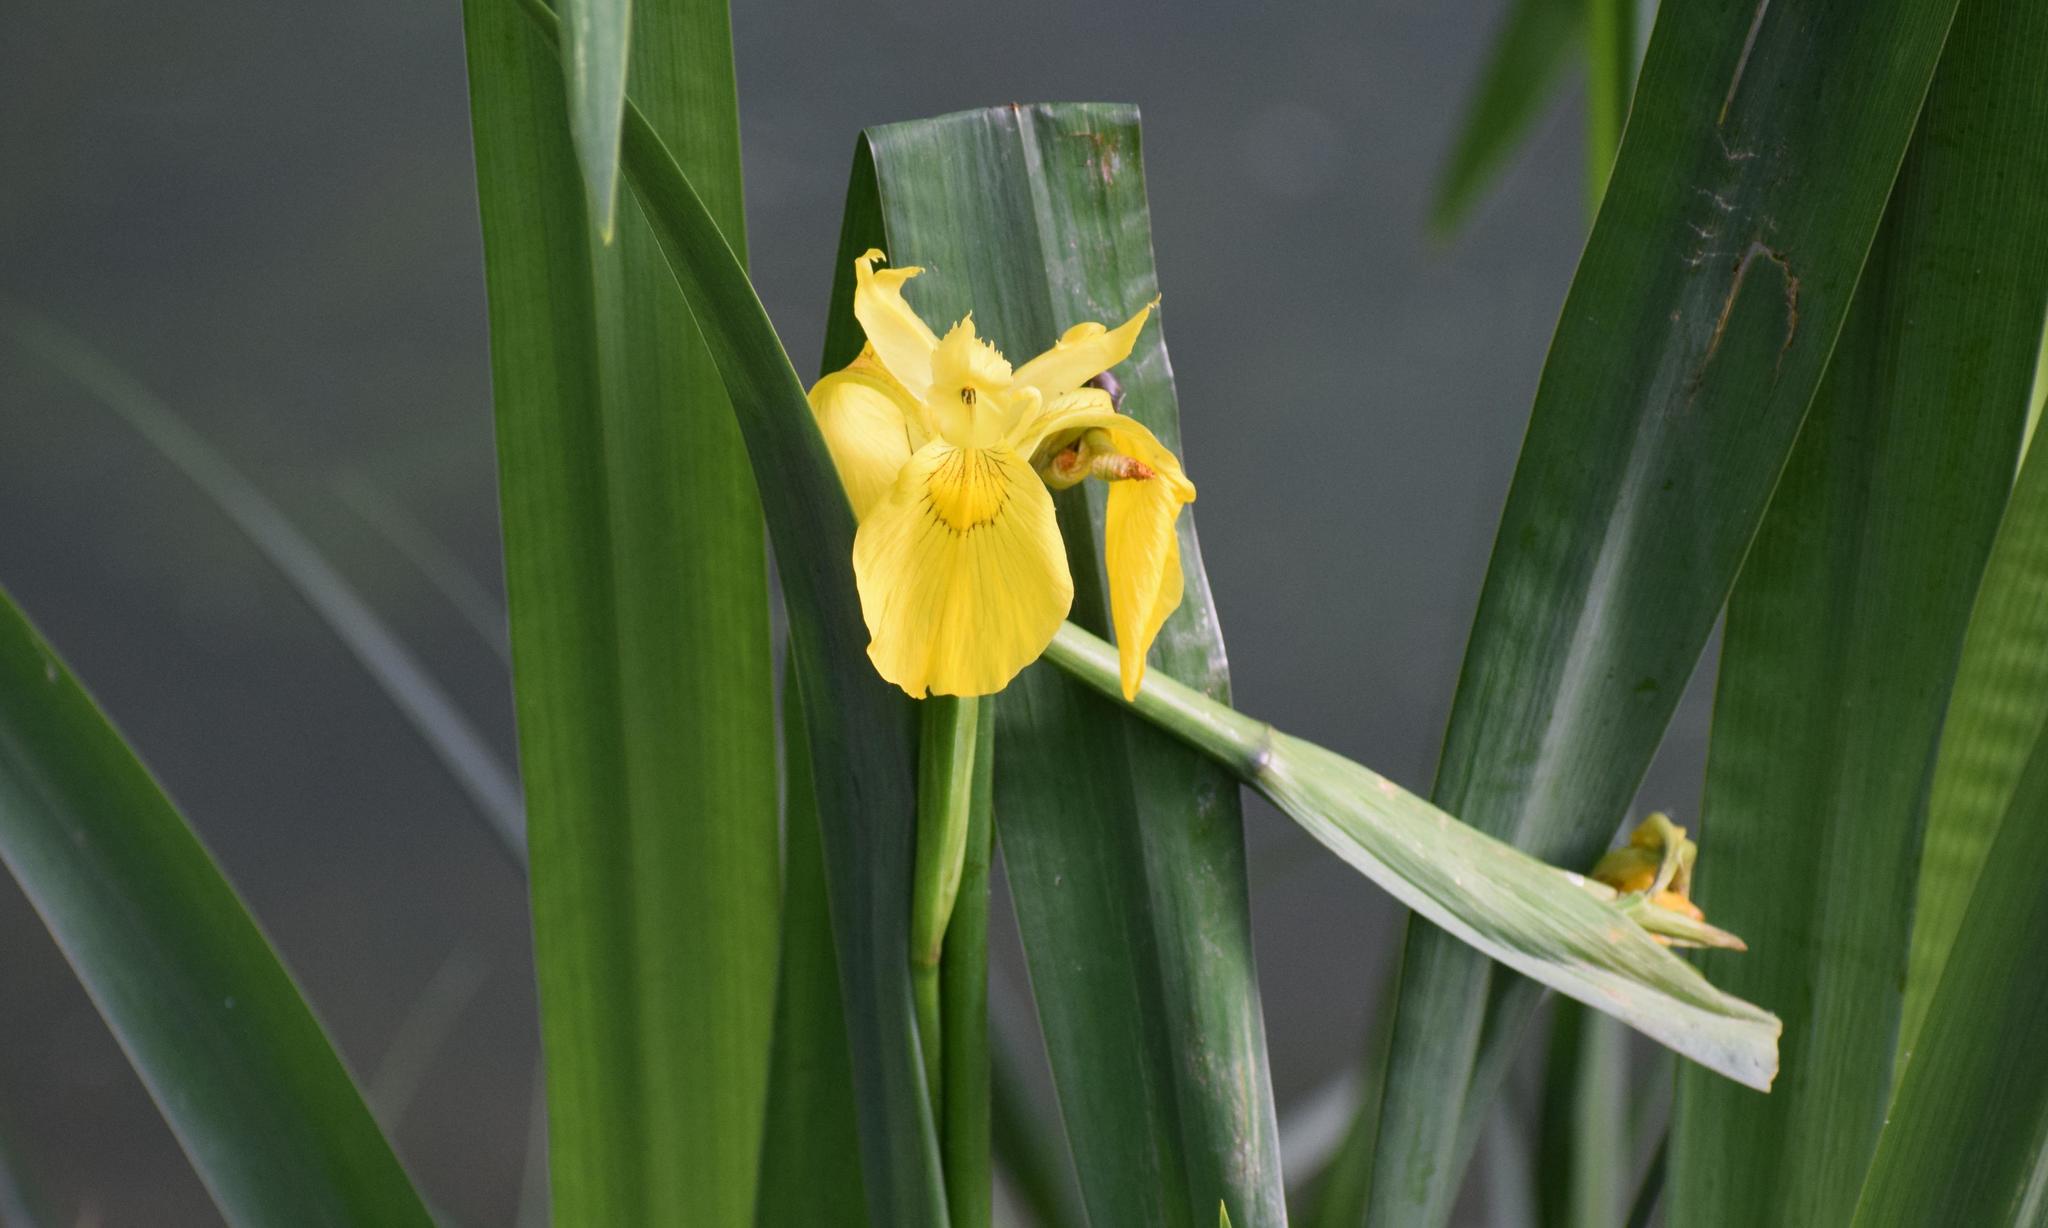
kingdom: Plantae
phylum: Tracheophyta
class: Liliopsida
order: Asparagales
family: Iridaceae
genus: Iris
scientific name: Iris pseudacorus
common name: Yellow flag
